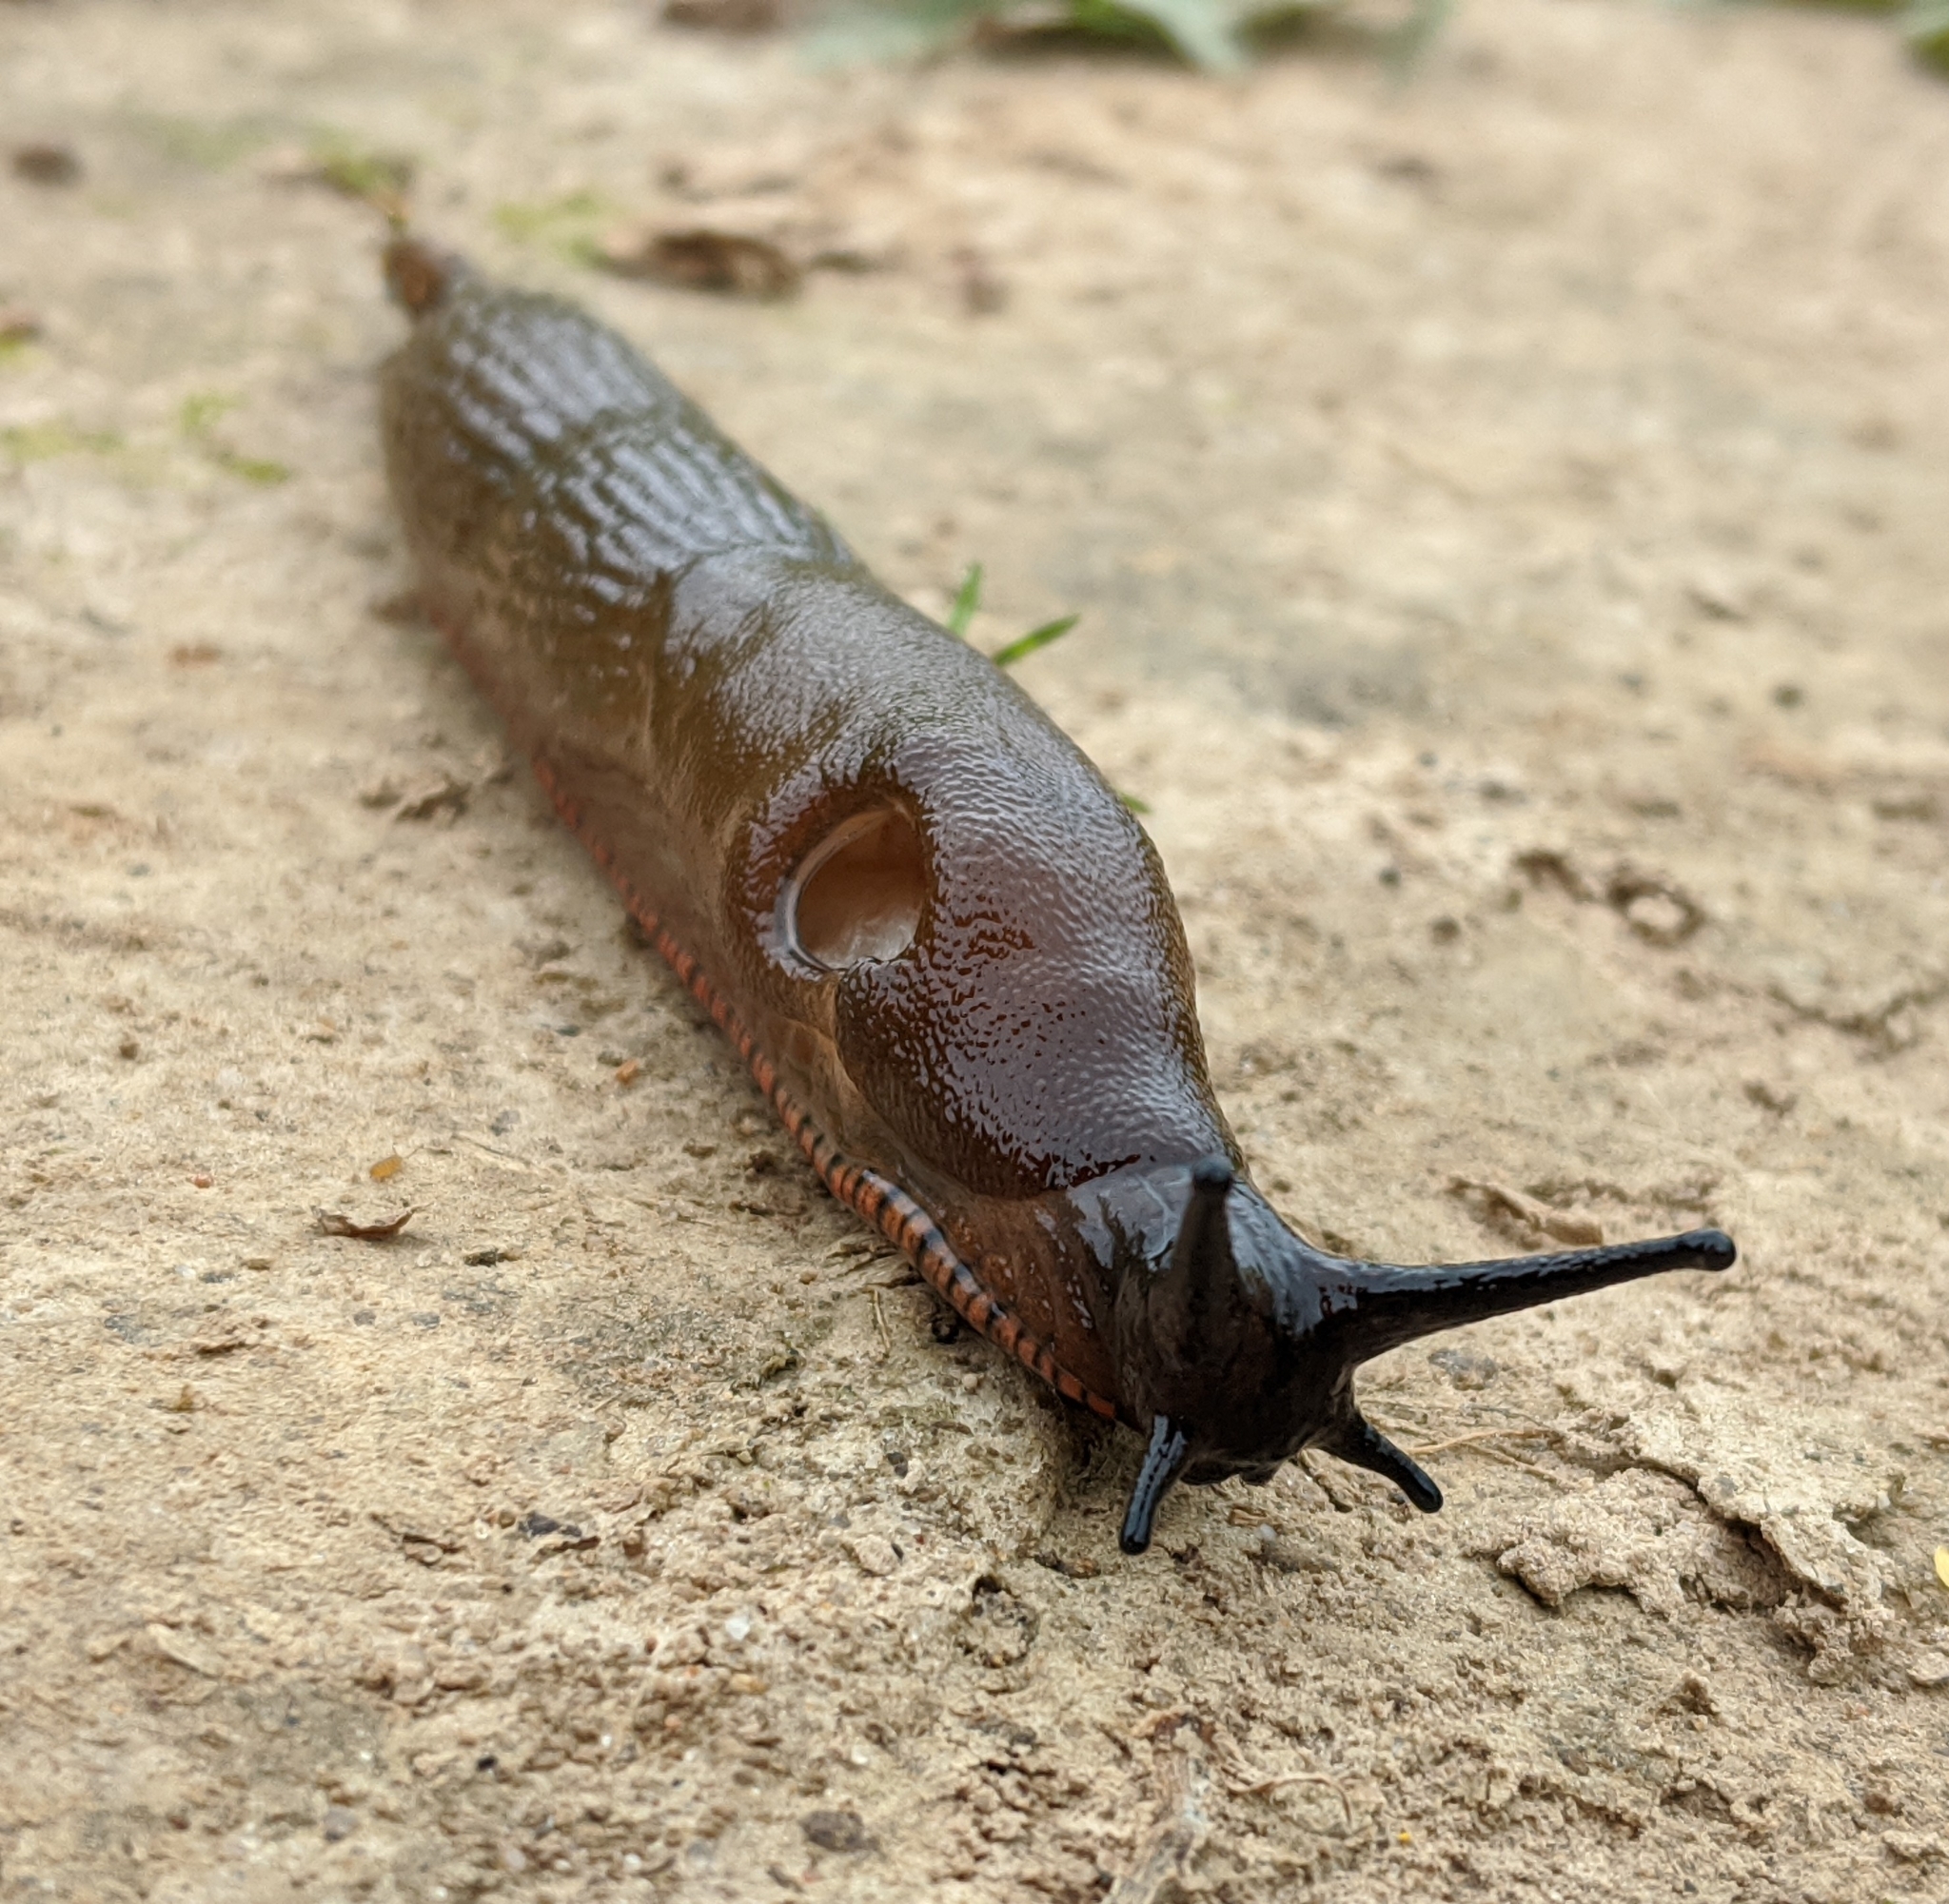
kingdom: Animalia
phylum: Mollusca
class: Gastropoda
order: Stylommatophora
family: Arionidae
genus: Arion
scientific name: Arion
